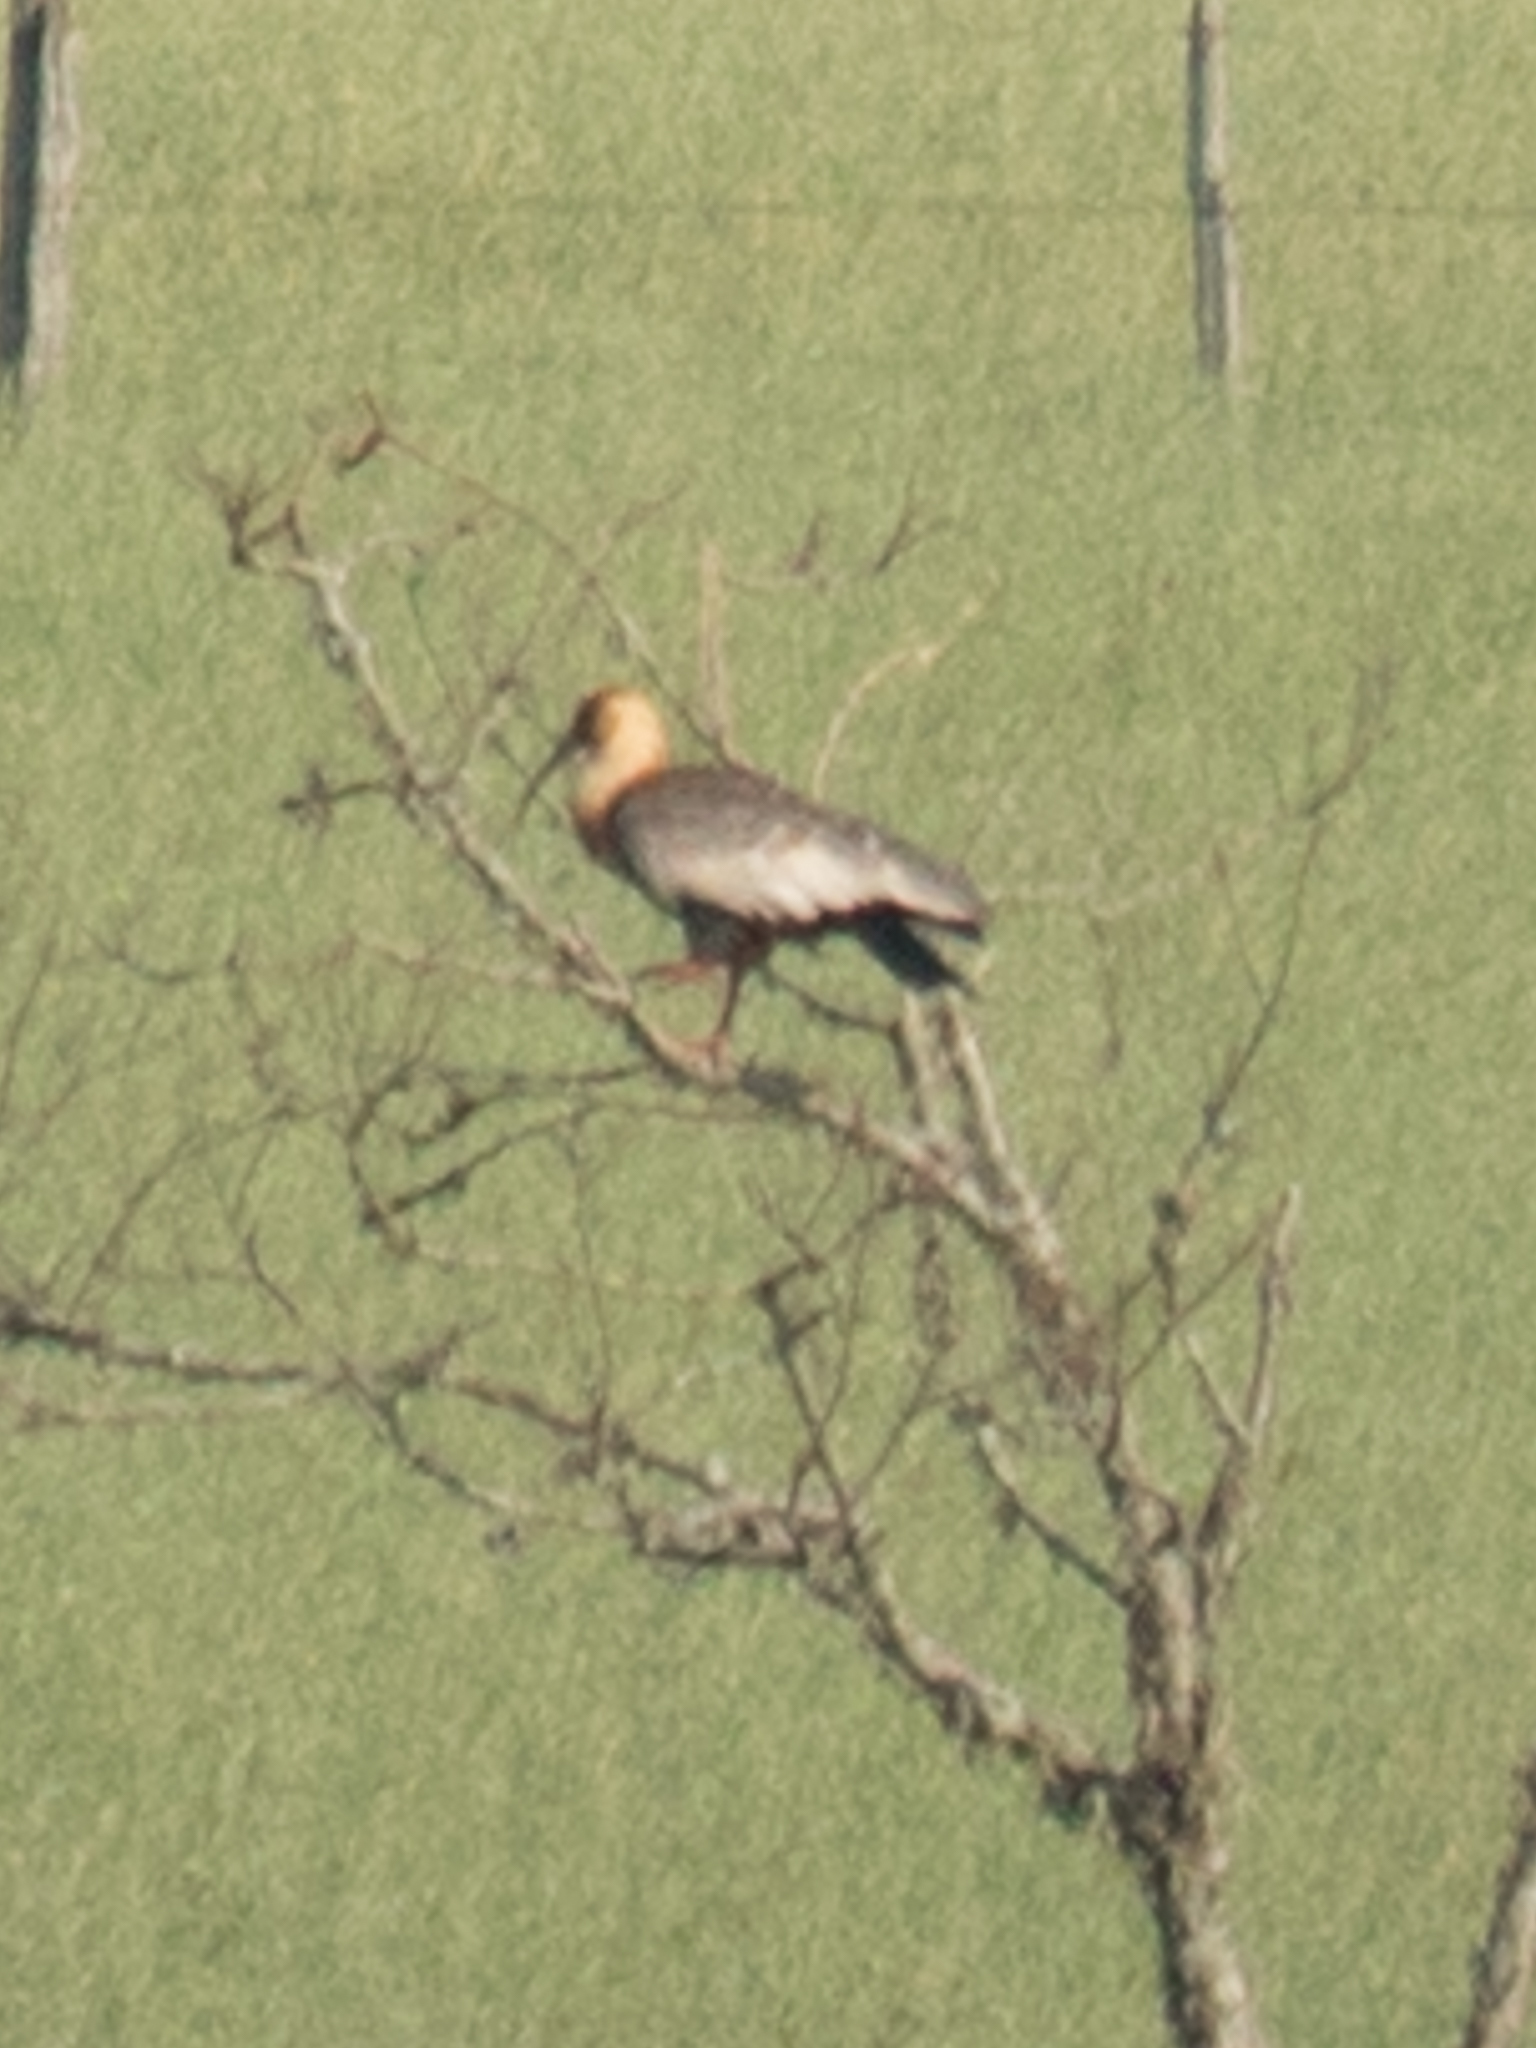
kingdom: Animalia
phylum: Chordata
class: Aves
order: Pelecaniformes
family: Threskiornithidae
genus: Theristicus
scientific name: Theristicus caudatus
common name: Buff-necked ibis
